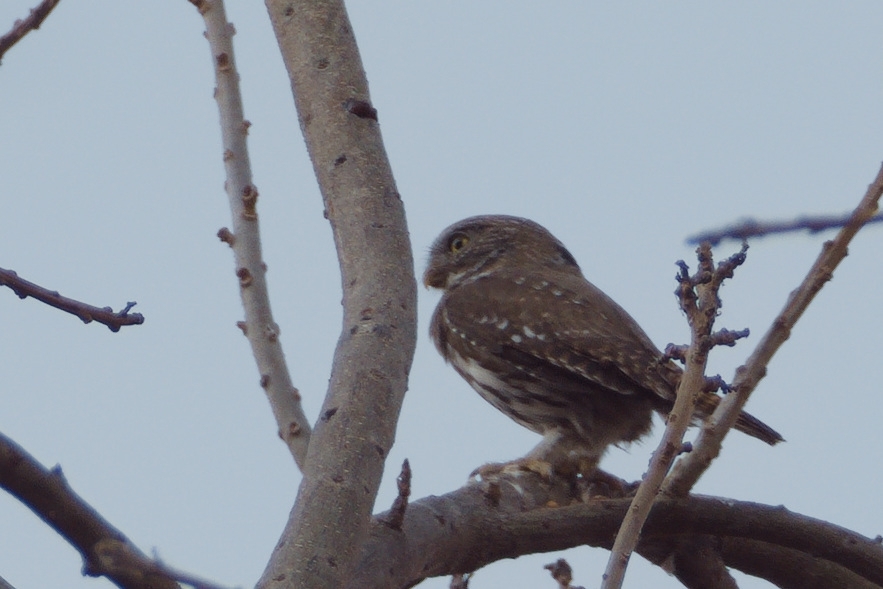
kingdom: Animalia
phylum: Chordata
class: Aves
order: Strigiformes
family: Strigidae
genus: Glaucidium
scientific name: Glaucidium brasilianum
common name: Ferruginous pygmy-owl
